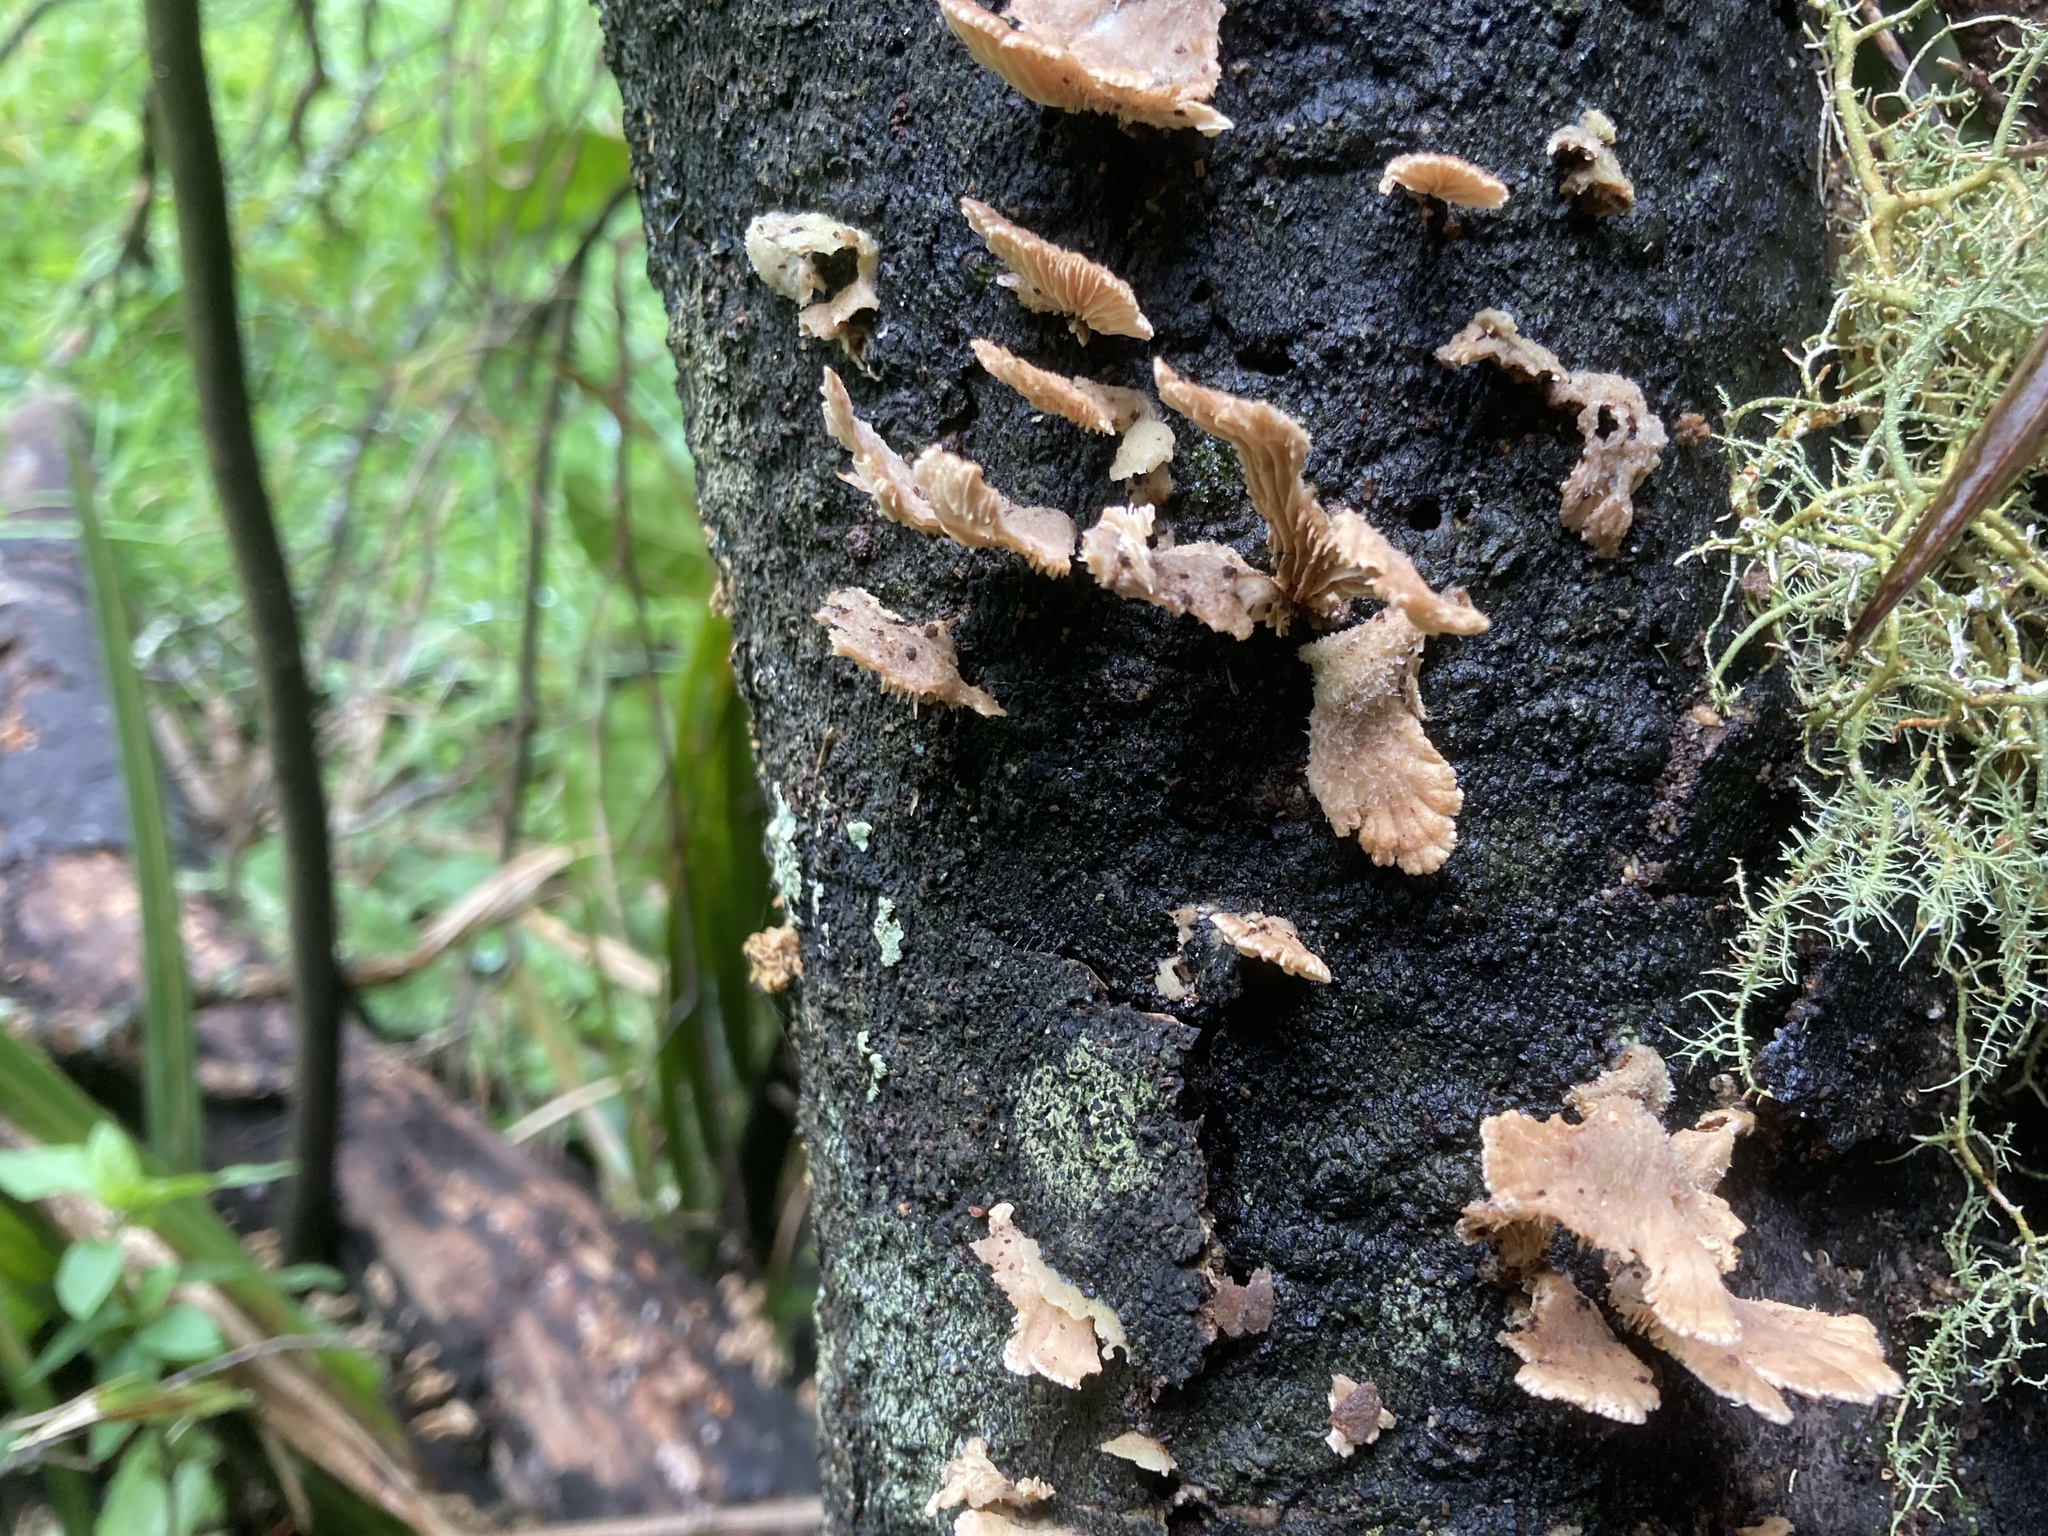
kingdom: Fungi
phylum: Basidiomycota
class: Agaricomycetes
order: Agaricales
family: Schizophyllaceae
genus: Schizophyllum
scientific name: Schizophyllum commune
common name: Common porecrust
